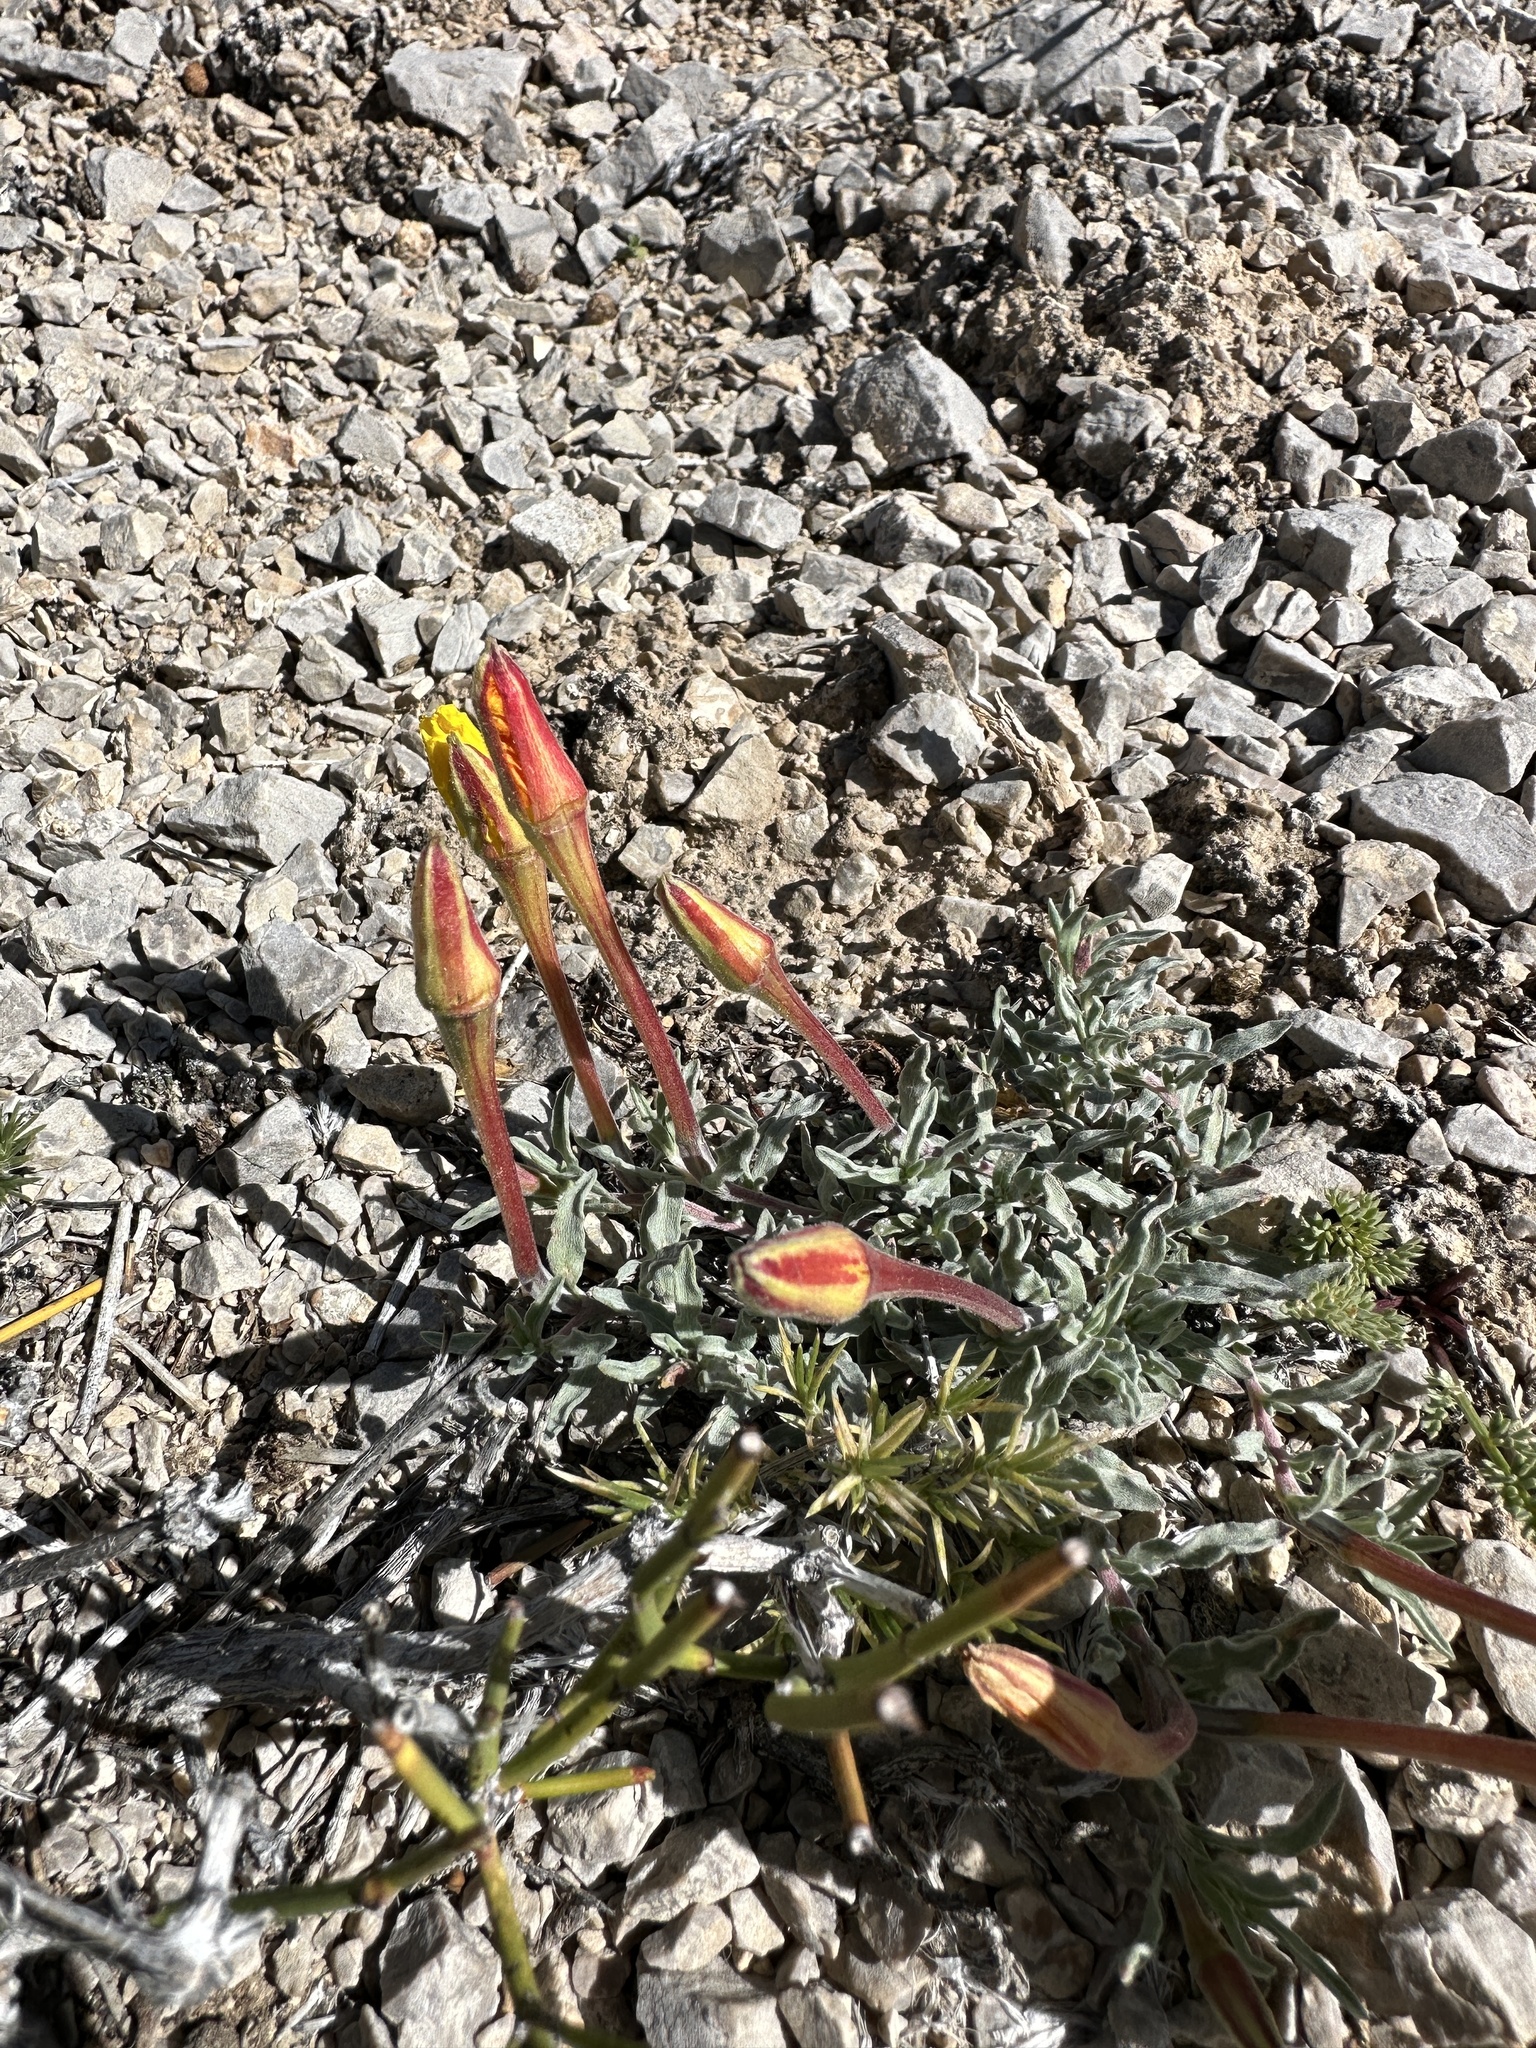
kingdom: Plantae
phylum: Tracheophyta
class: Magnoliopsida
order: Myrtales
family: Onagraceae
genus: Oenothera
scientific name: Oenothera lavandulifolia
